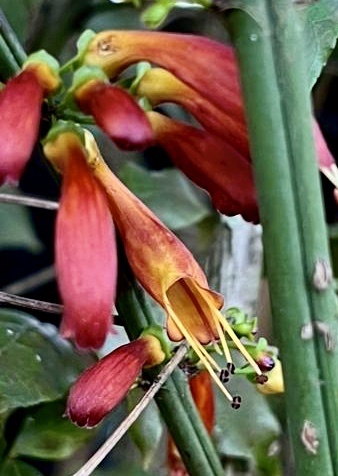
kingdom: Plantae
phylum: Tracheophyta
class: Magnoliopsida
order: Lamiales
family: Stilbaceae
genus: Halleria
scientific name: Halleria lucida
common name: Tree fuschia
